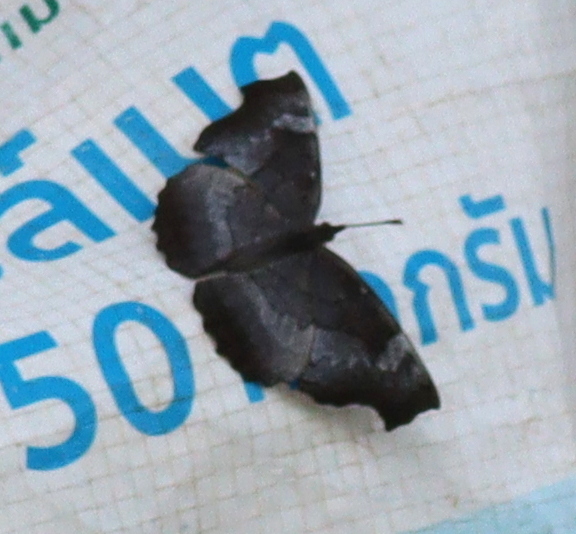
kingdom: Animalia
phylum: Arthropoda
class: Insecta
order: Lepidoptera
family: Nymphalidae
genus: Laringa
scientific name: Laringa horsfieldii
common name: Banded dandy
